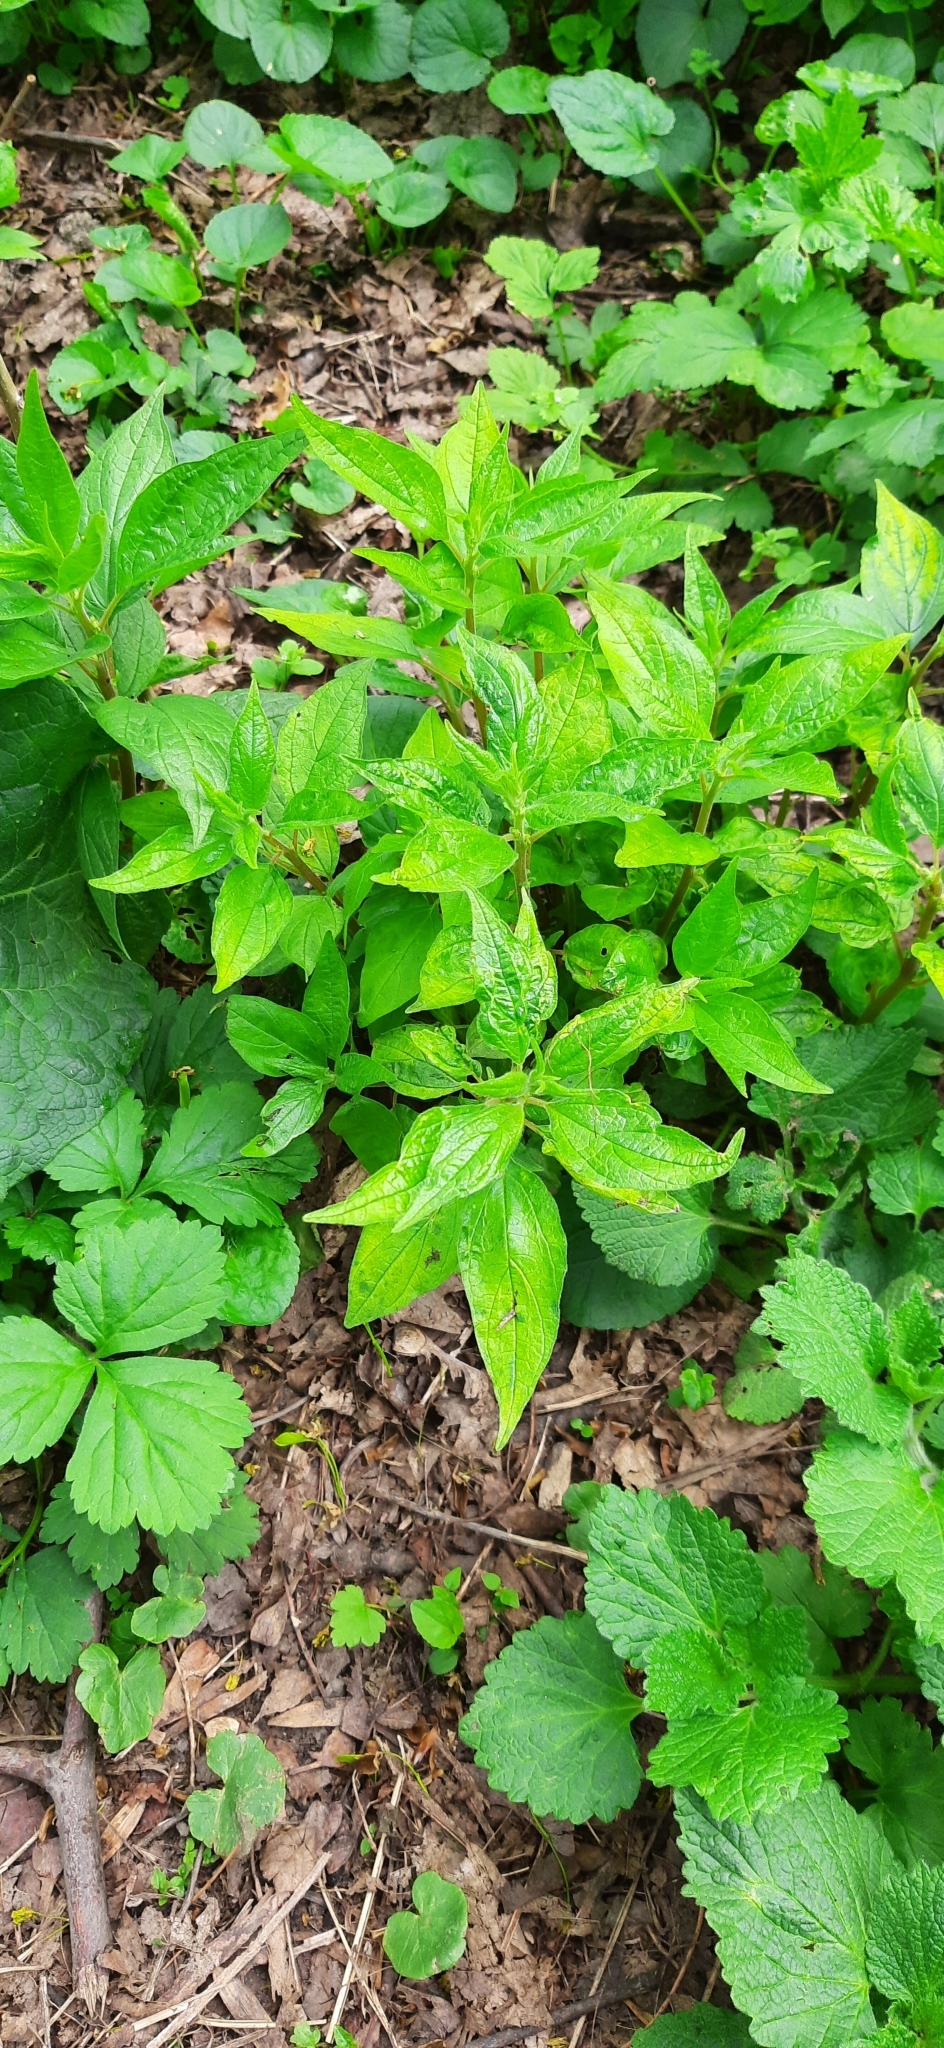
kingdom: Plantae
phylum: Tracheophyta
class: Magnoliopsida
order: Rosales
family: Urticaceae
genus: Parietaria
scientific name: Parietaria officinalis
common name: Eastern pellitory-of-the-wall
